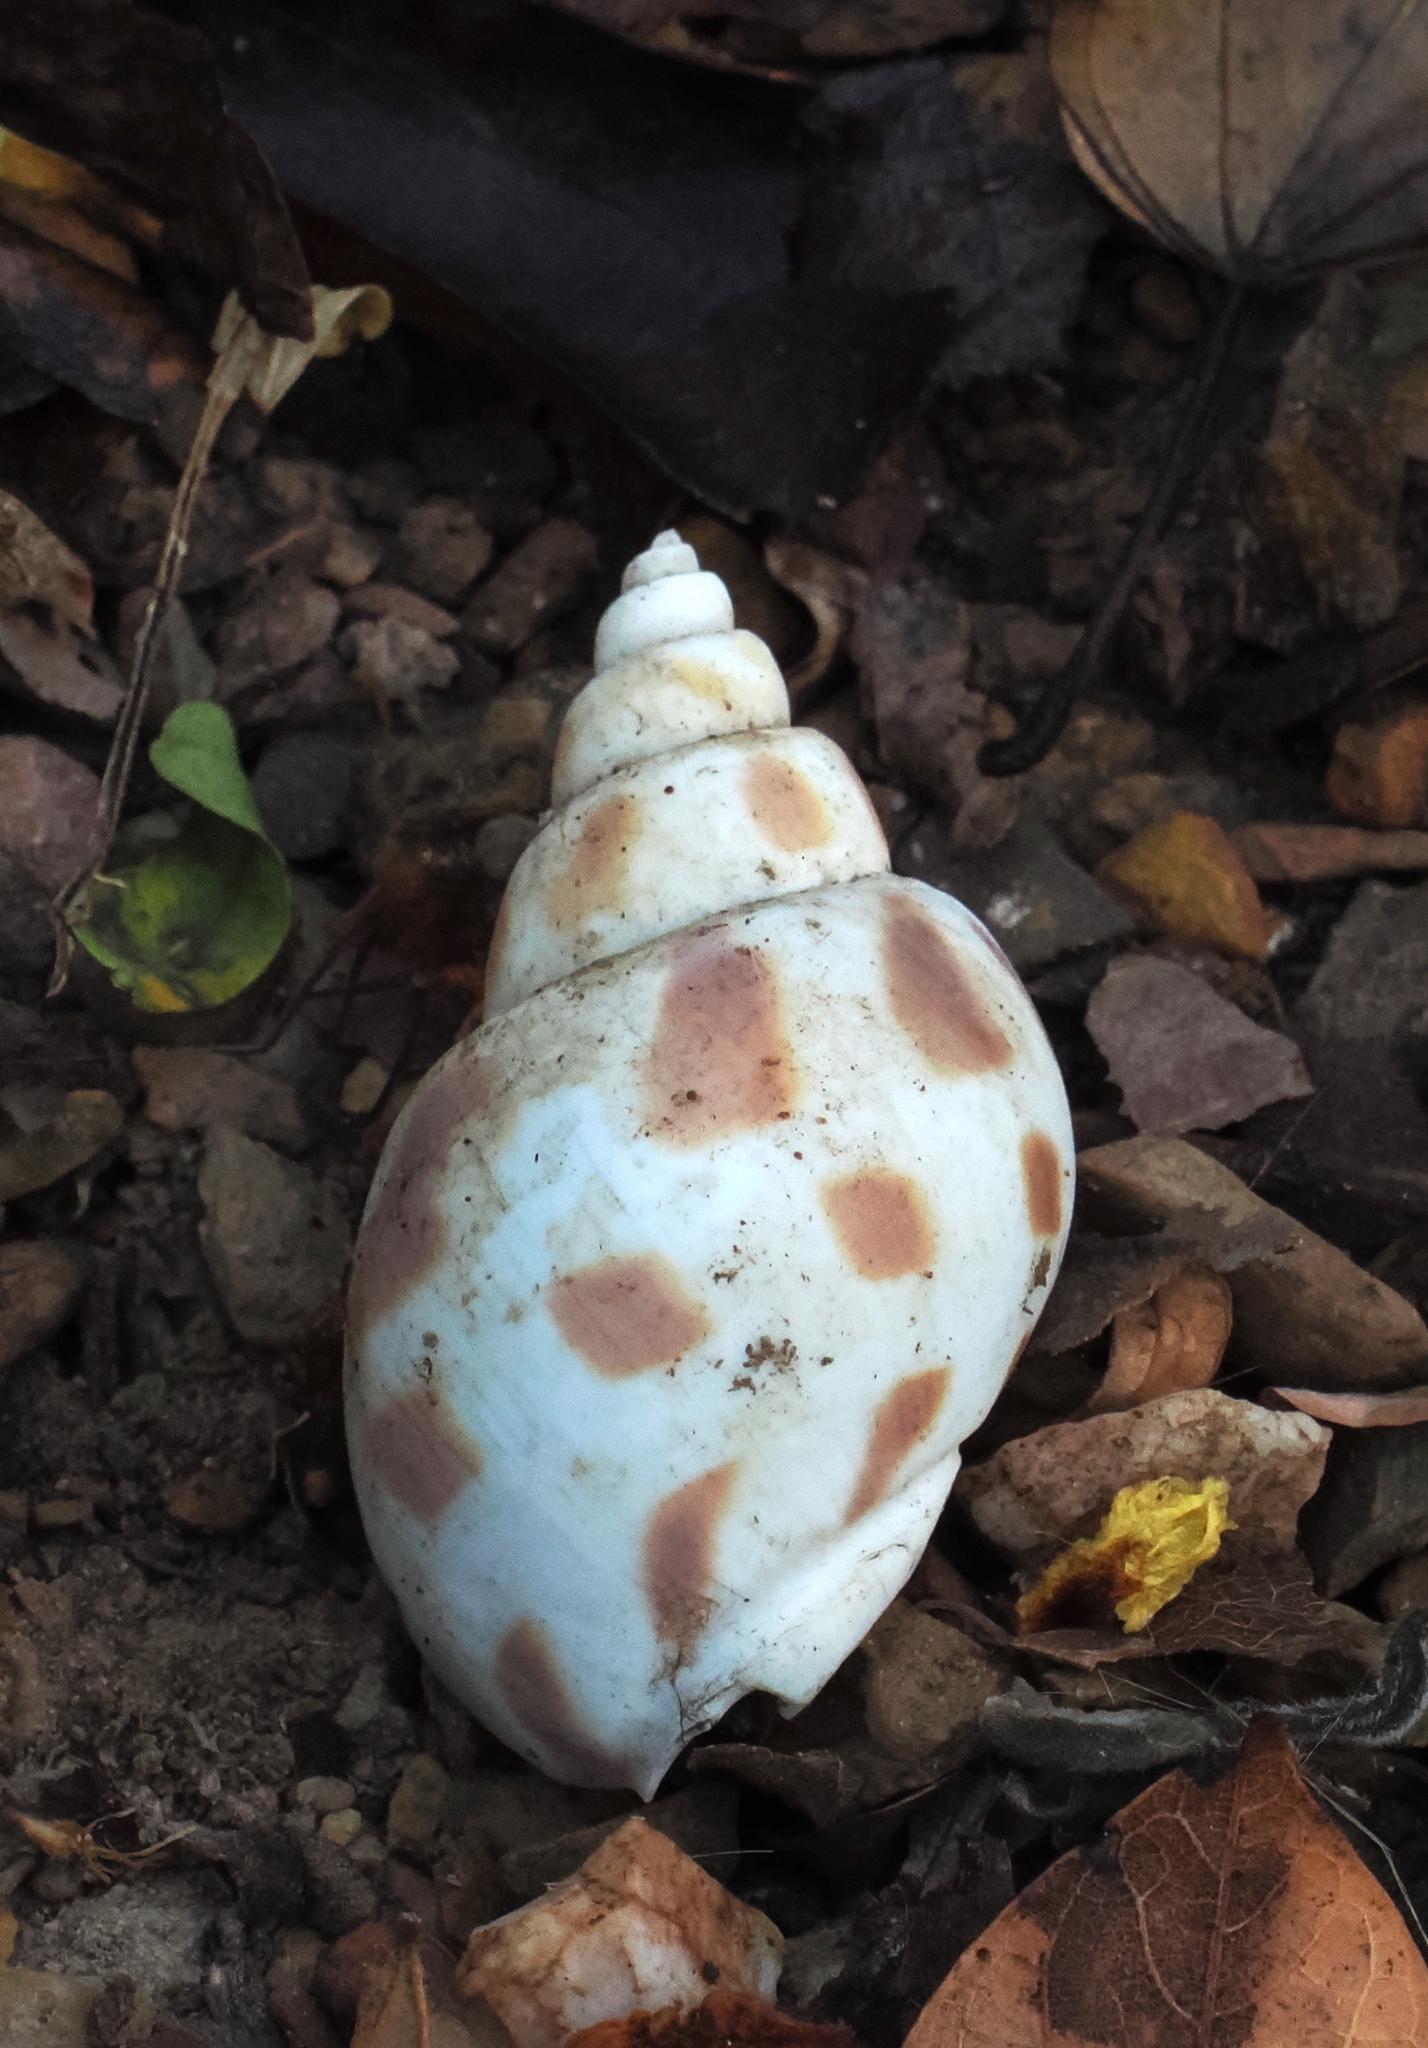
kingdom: Animalia
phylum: Mollusca
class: Gastropoda
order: Neogastropoda
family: Babyloniidae
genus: Babylonia
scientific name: Babylonia areolata
